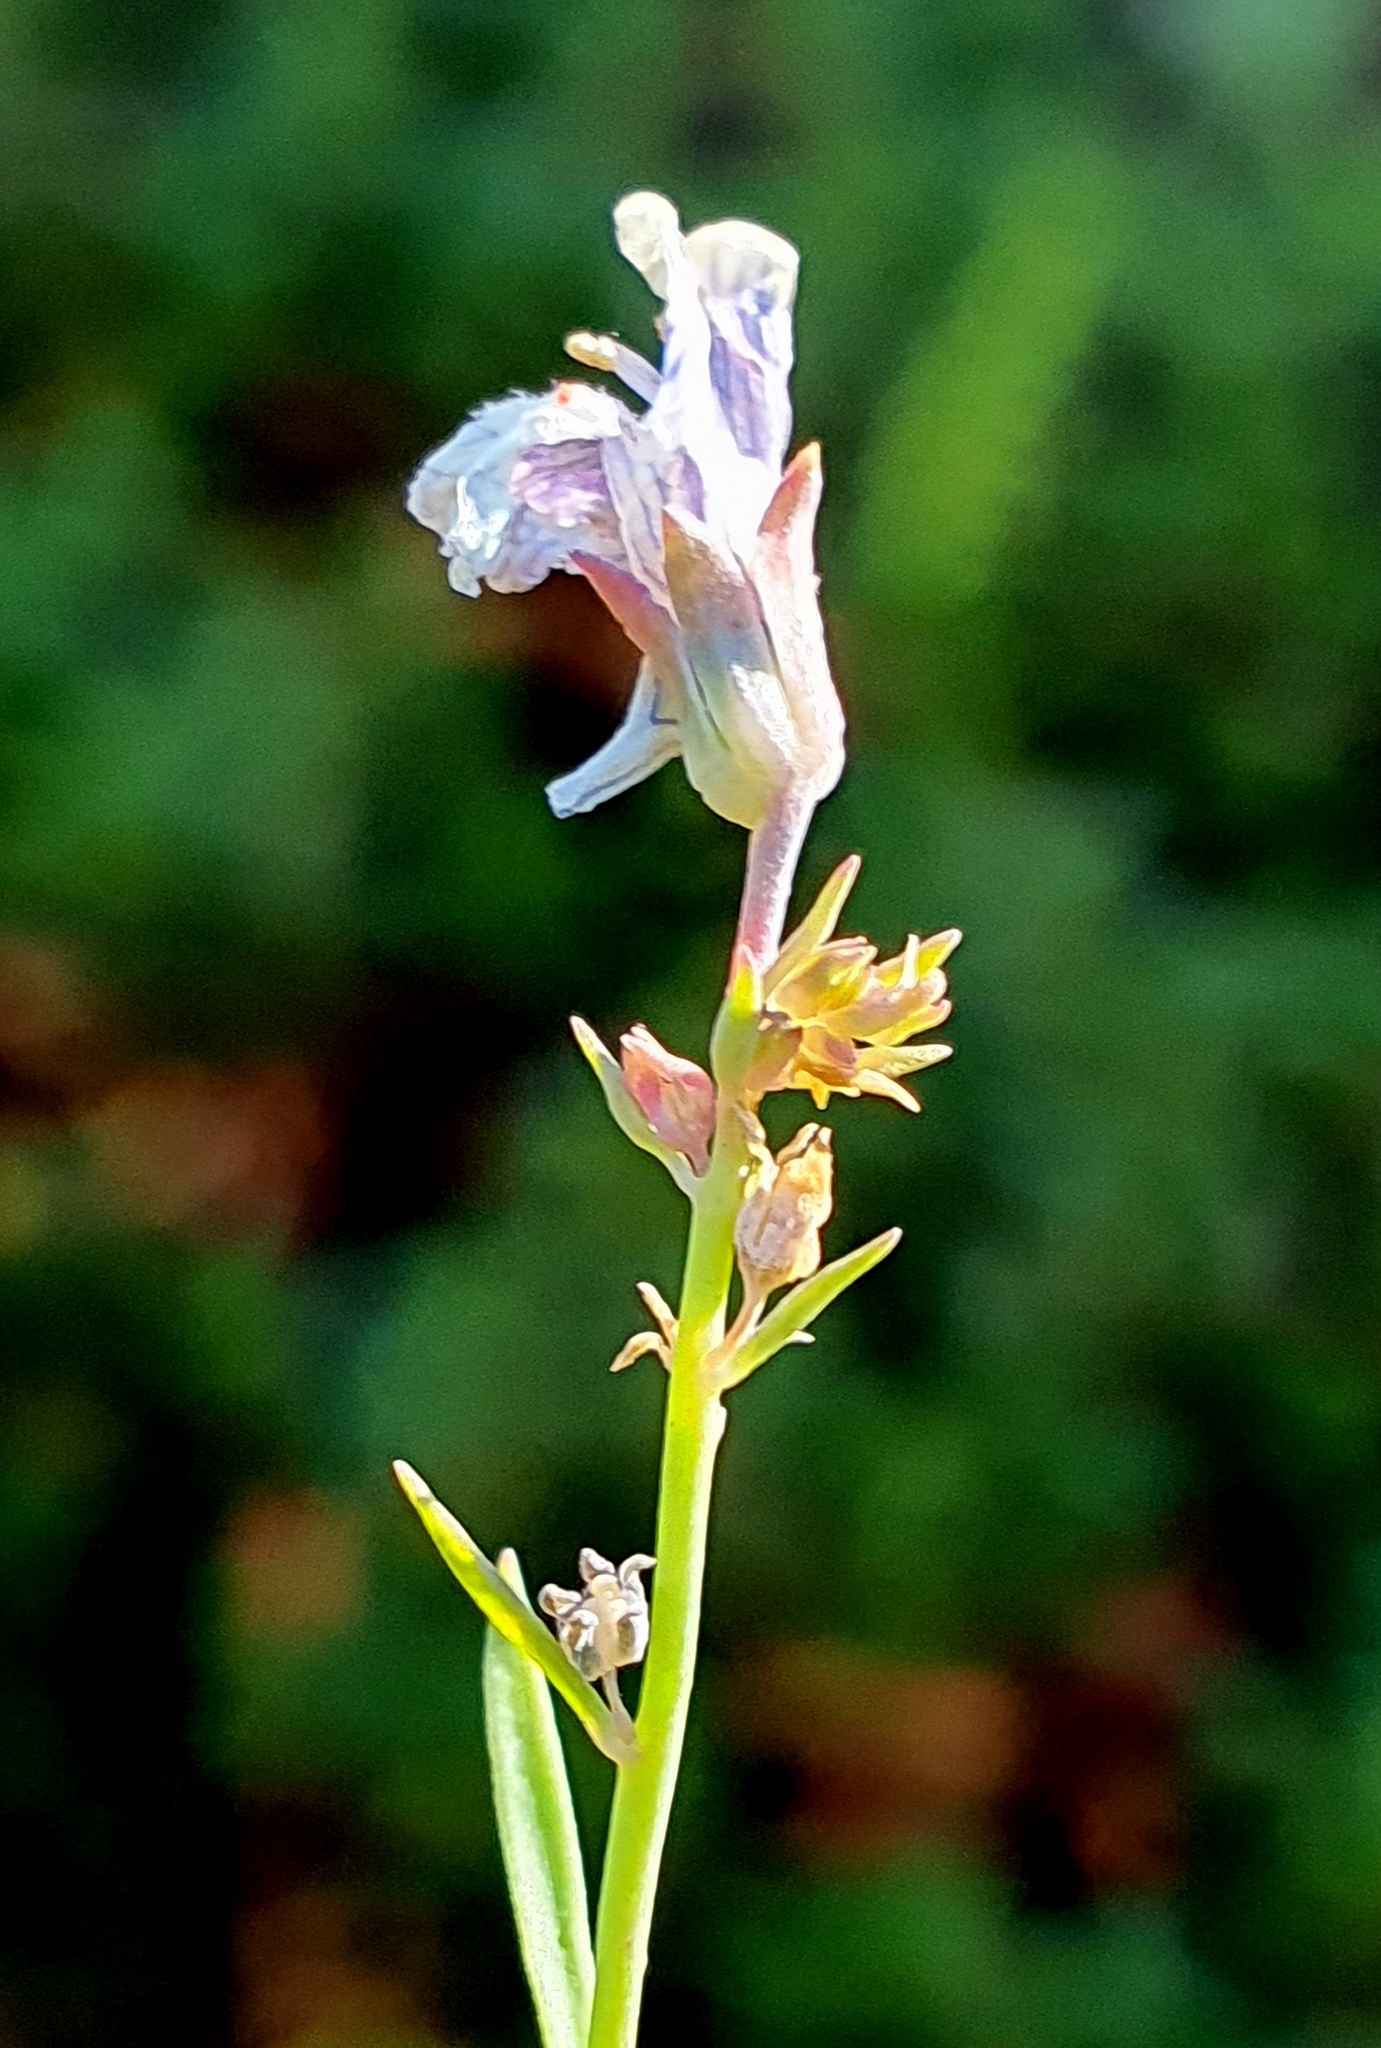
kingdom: Plantae
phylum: Tracheophyta
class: Magnoliopsida
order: Lamiales
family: Plantaginaceae
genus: Linaria
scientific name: Linaria repens
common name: Pale toadflax
